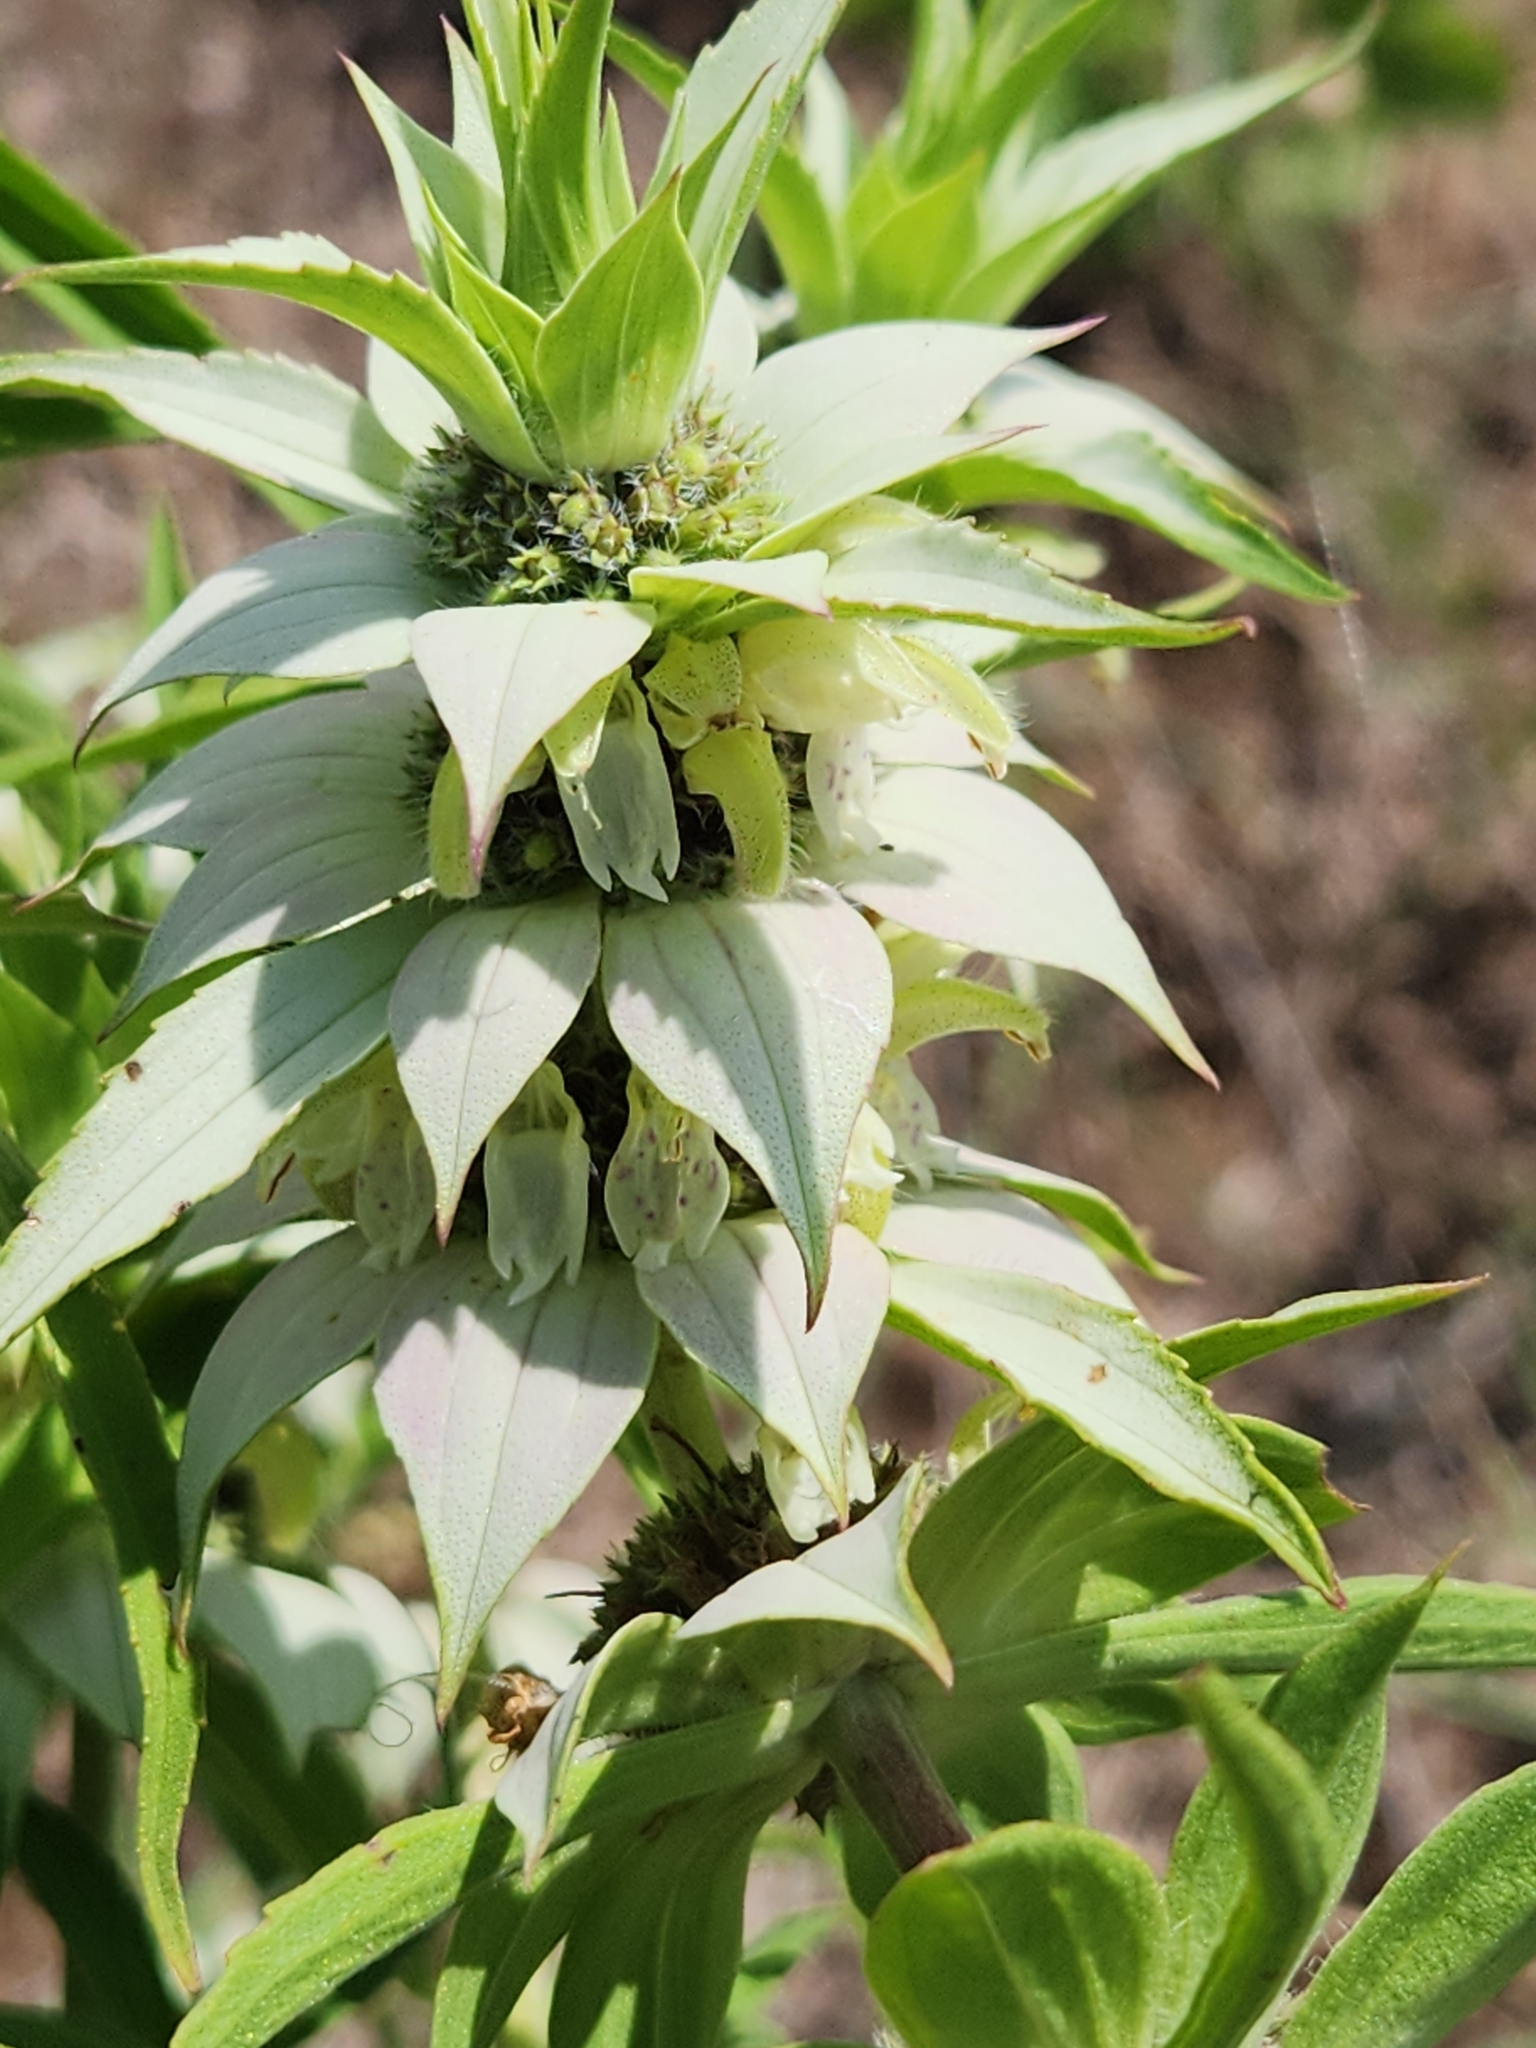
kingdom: Plantae
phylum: Tracheophyta
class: Magnoliopsida
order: Lamiales
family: Lamiaceae
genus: Monarda
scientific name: Monarda punctata
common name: Dotted monarda
